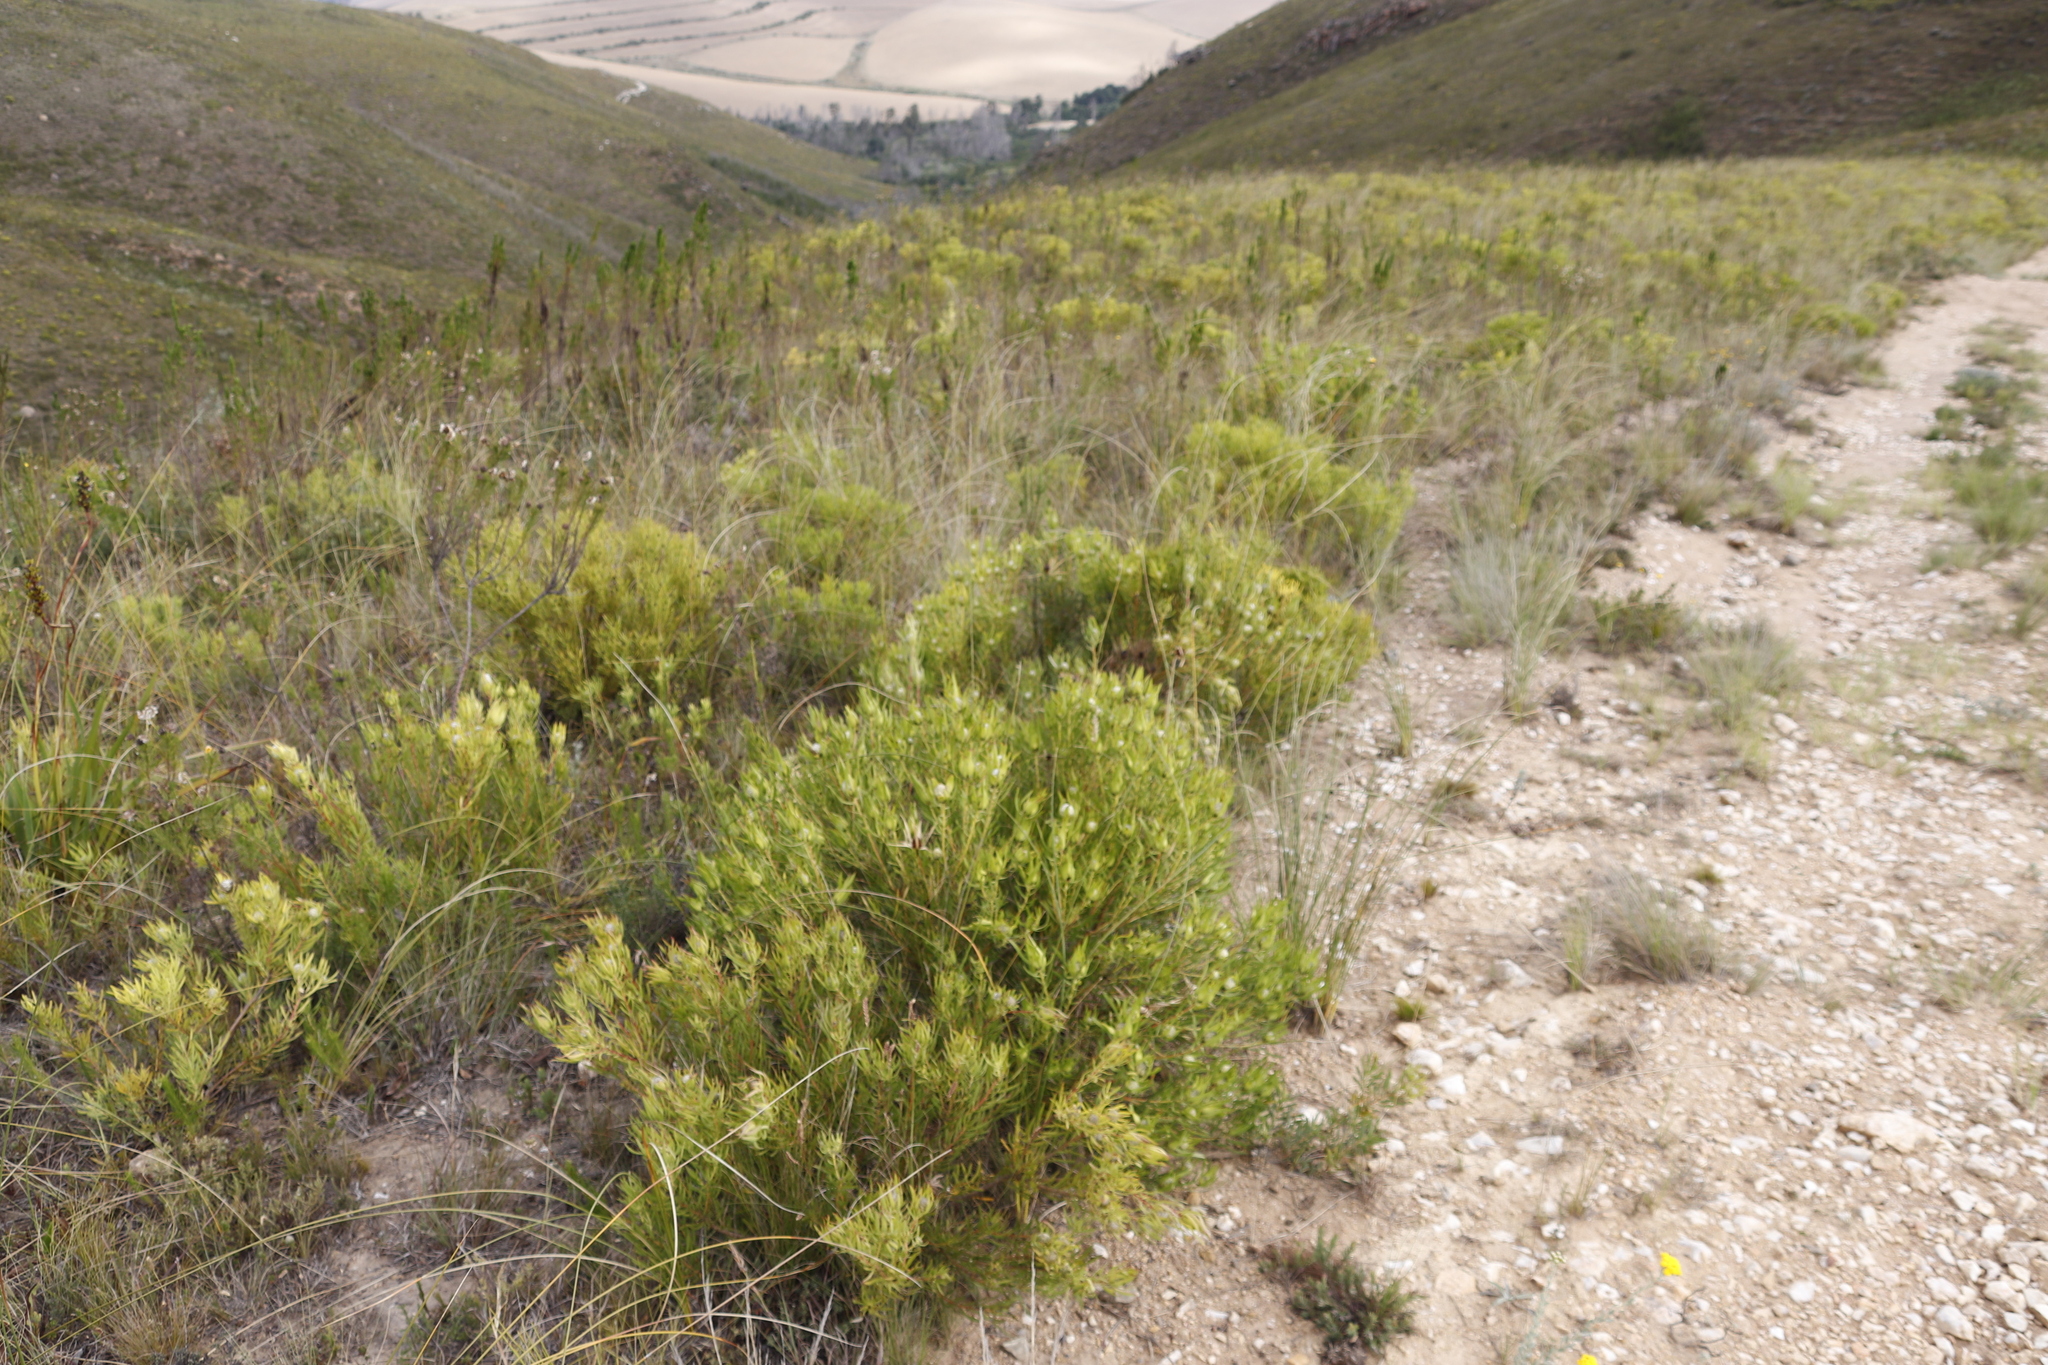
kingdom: Plantae
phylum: Tracheophyta
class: Magnoliopsida
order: Proteales
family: Proteaceae
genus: Leucadendron
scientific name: Leucadendron salignum
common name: Common sunshine conebush
